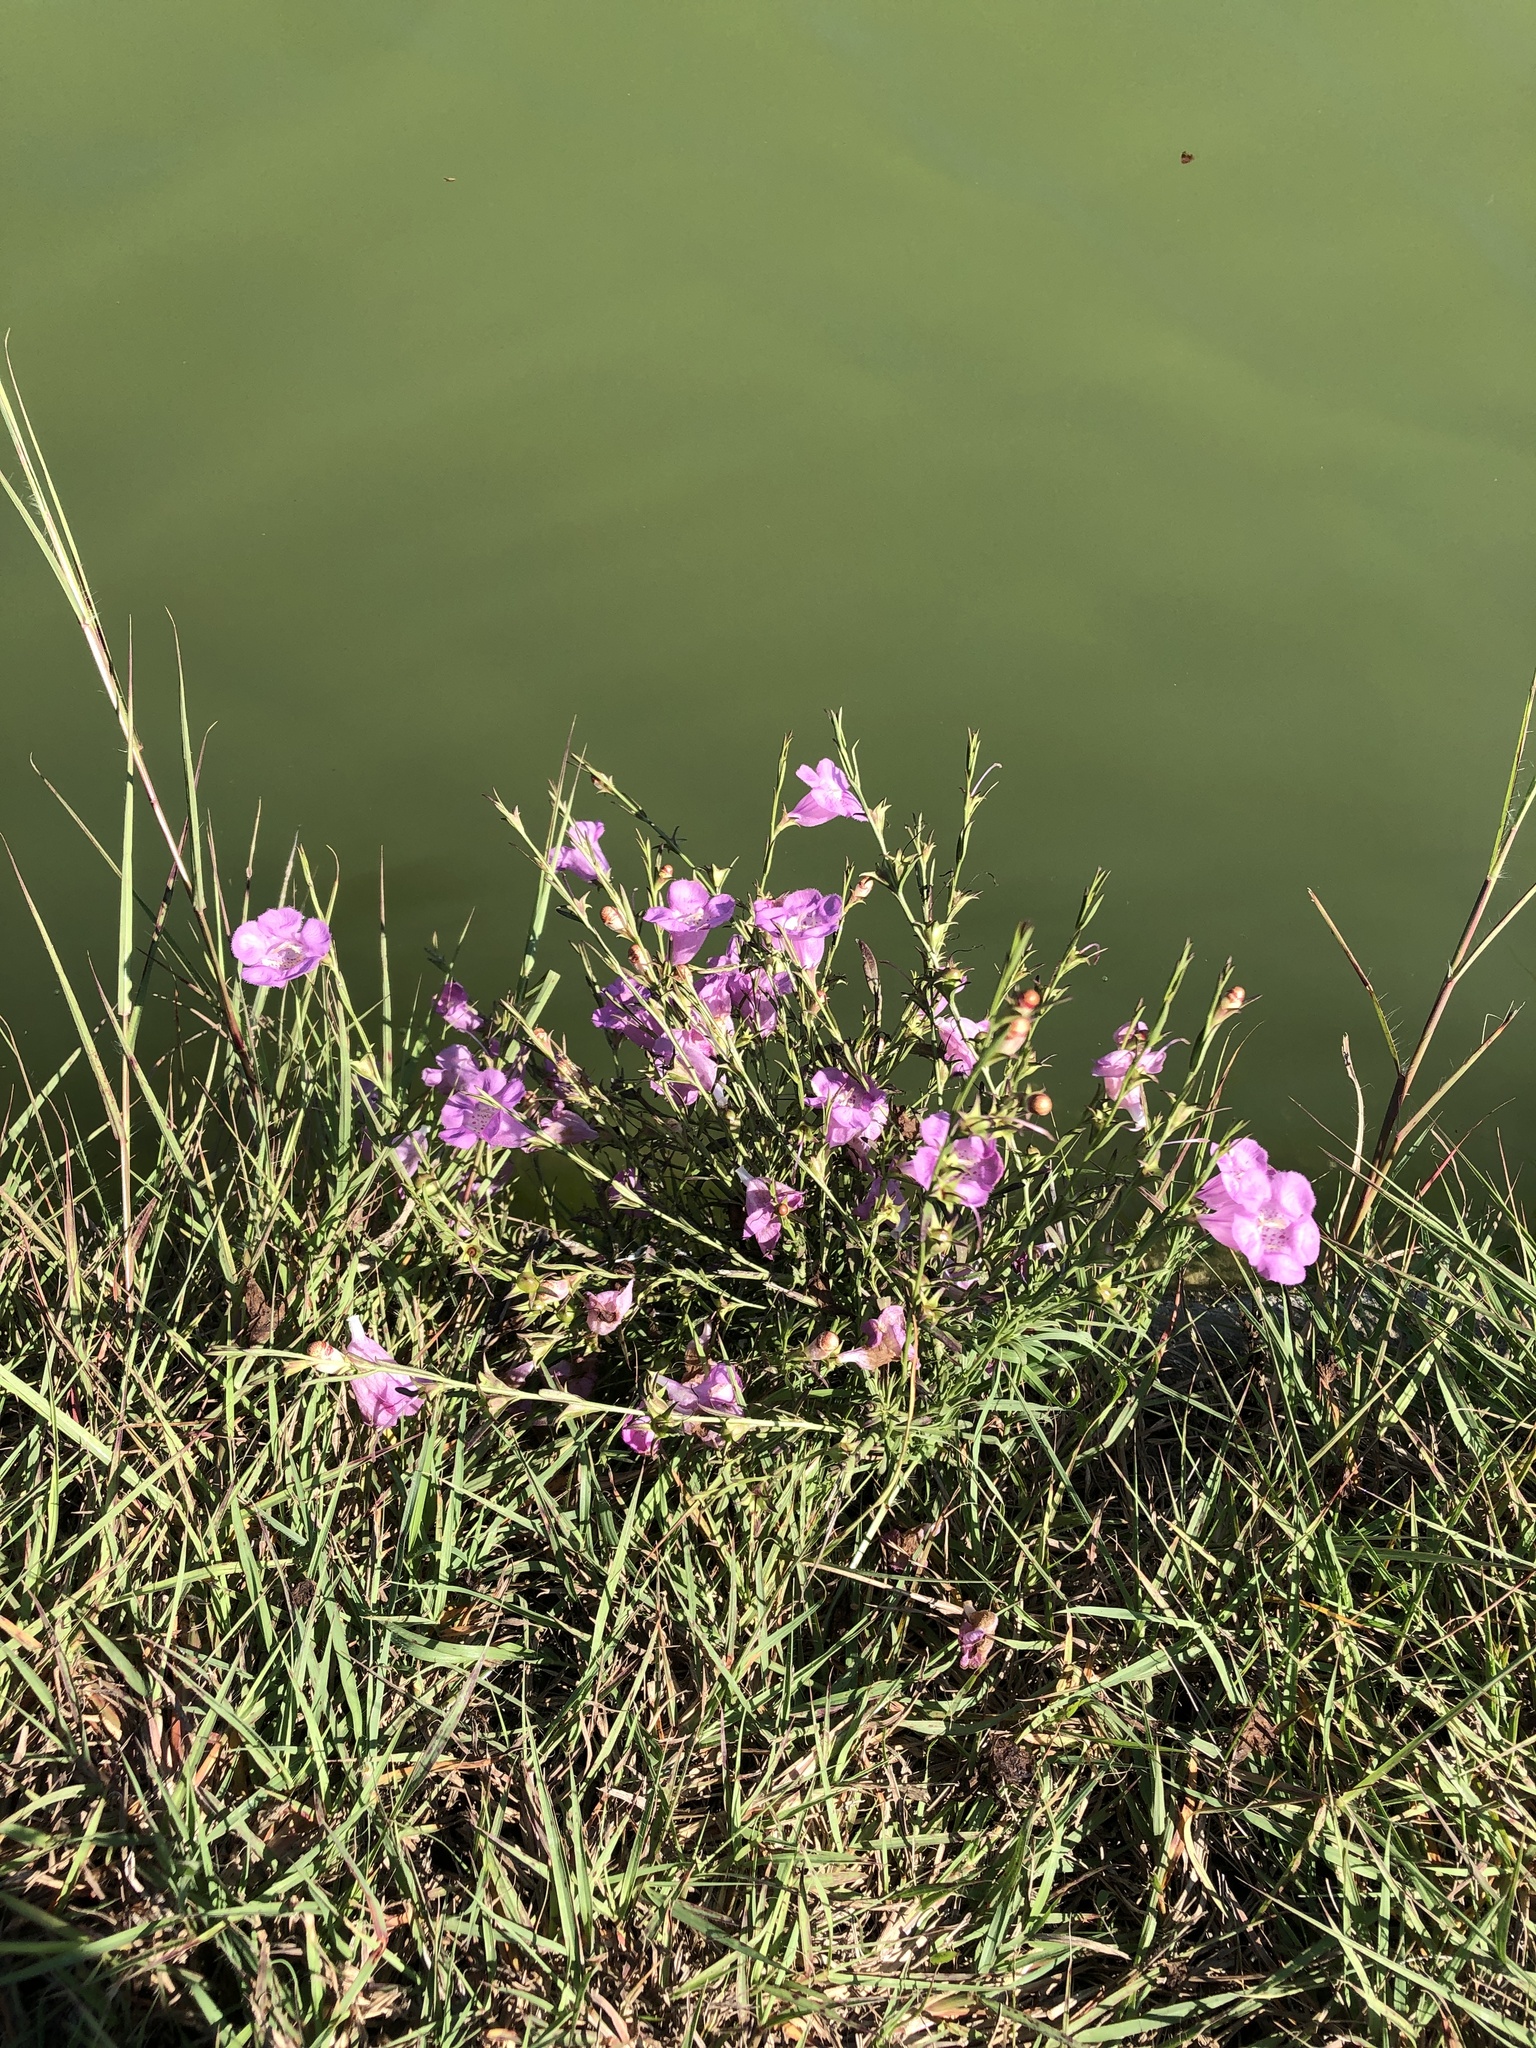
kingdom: Plantae
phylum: Tracheophyta
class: Magnoliopsida
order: Lamiales
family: Orobanchaceae
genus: Agalinis
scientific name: Agalinis heterophylla
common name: Prairie agalinis
